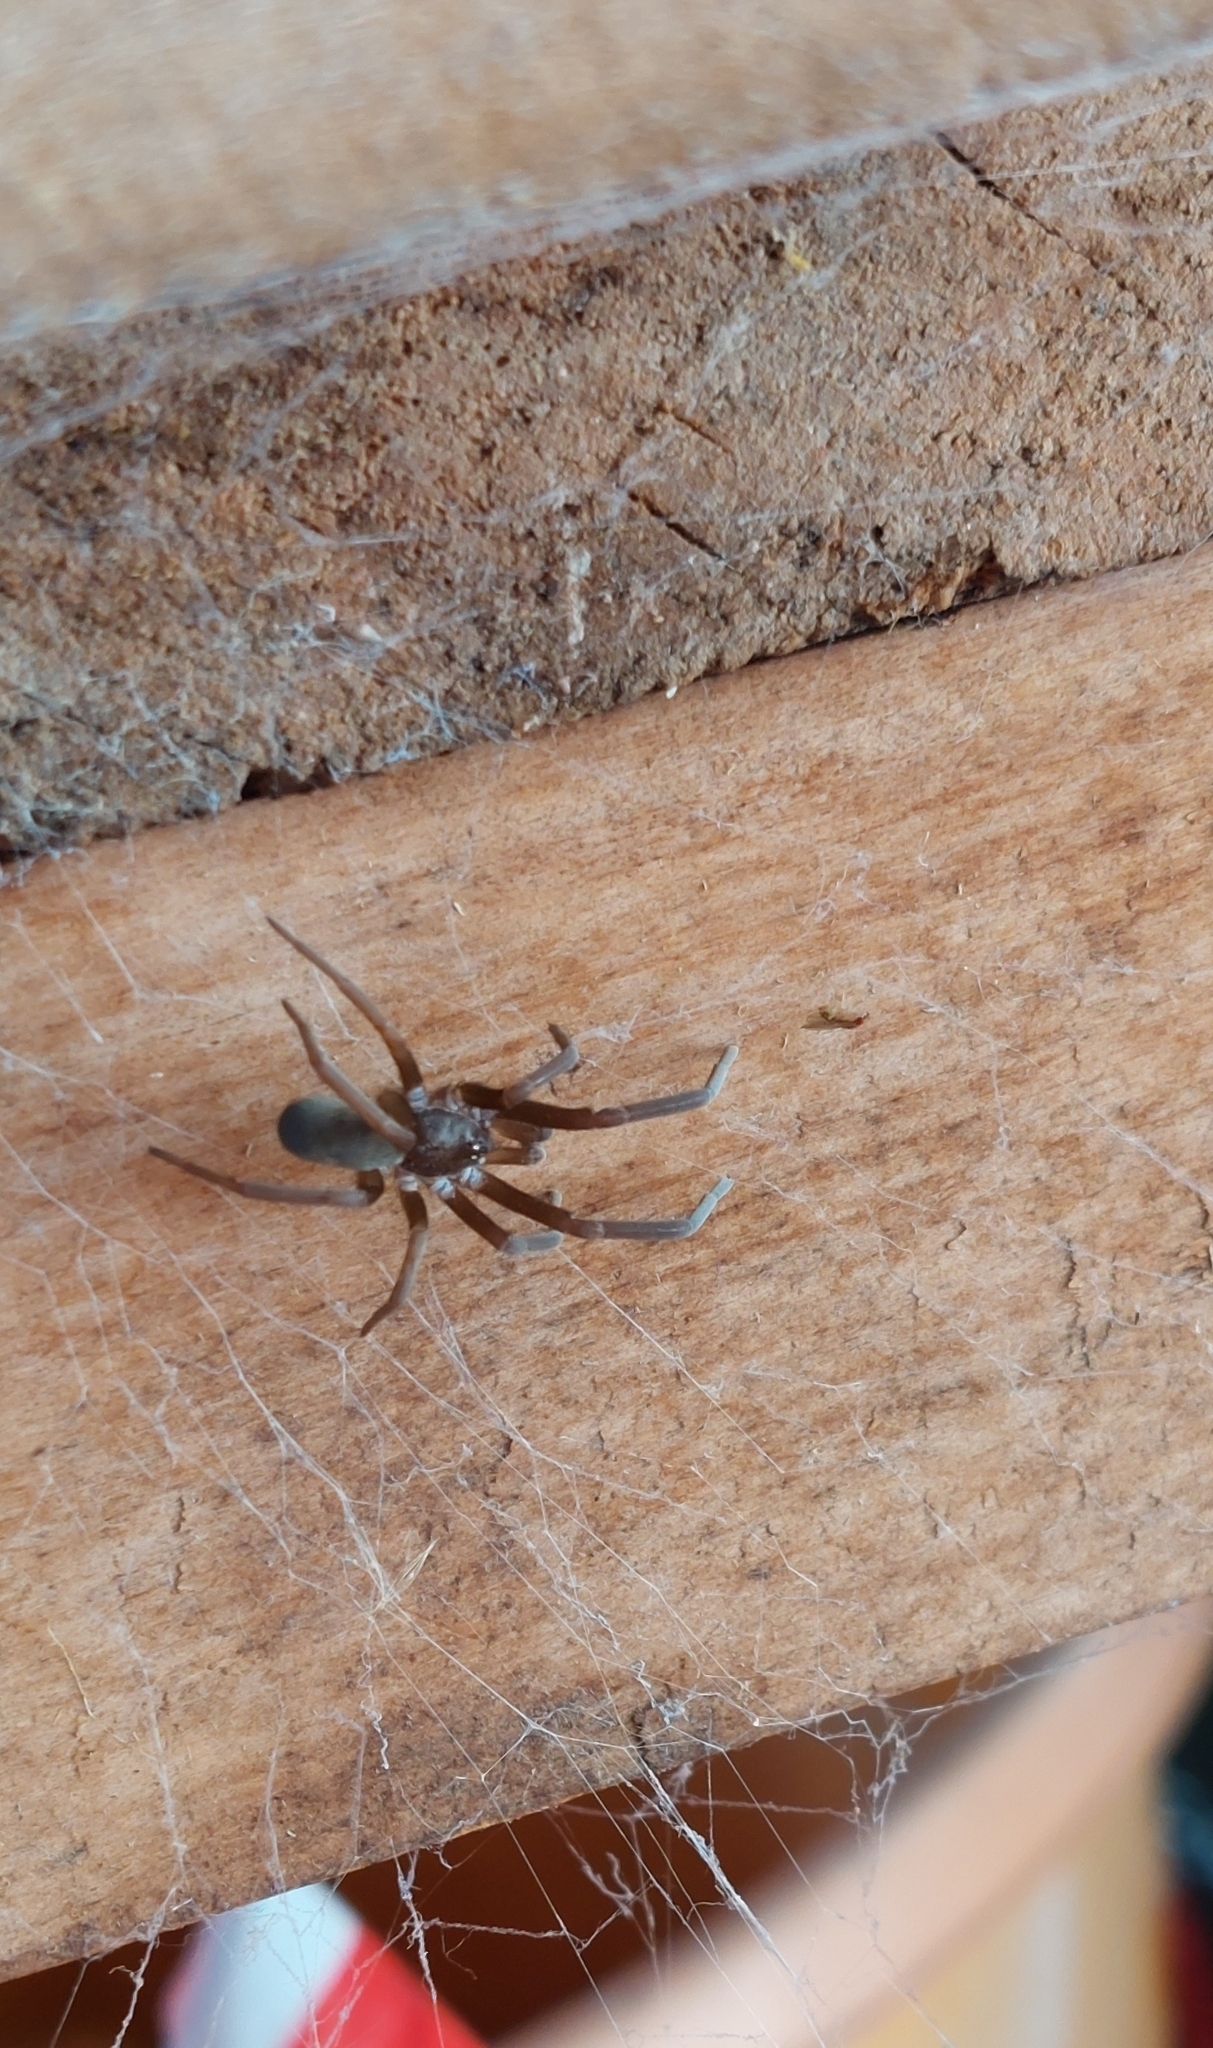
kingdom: Animalia
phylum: Arthropoda
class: Arachnida
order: Araneae
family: Filistatidae
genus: Kukulcania
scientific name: Kukulcania hibernalis
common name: Crevice weaver
